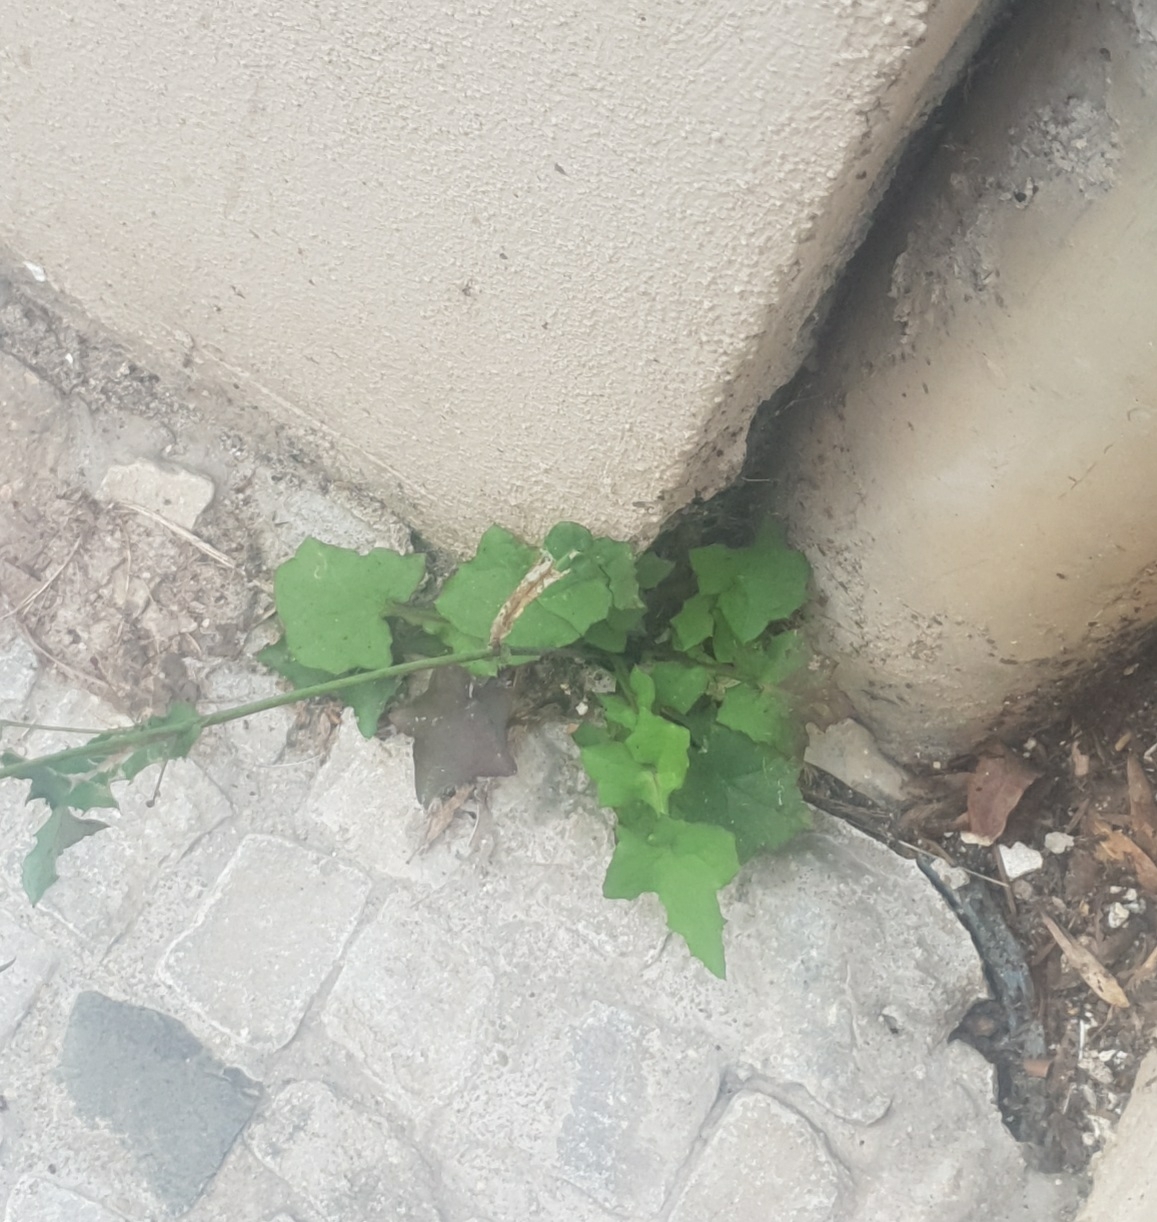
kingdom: Plantae
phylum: Tracheophyta
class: Magnoliopsida
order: Asterales
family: Asteraceae
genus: Mycelis
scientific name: Mycelis muralis
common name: Wall lettuce
